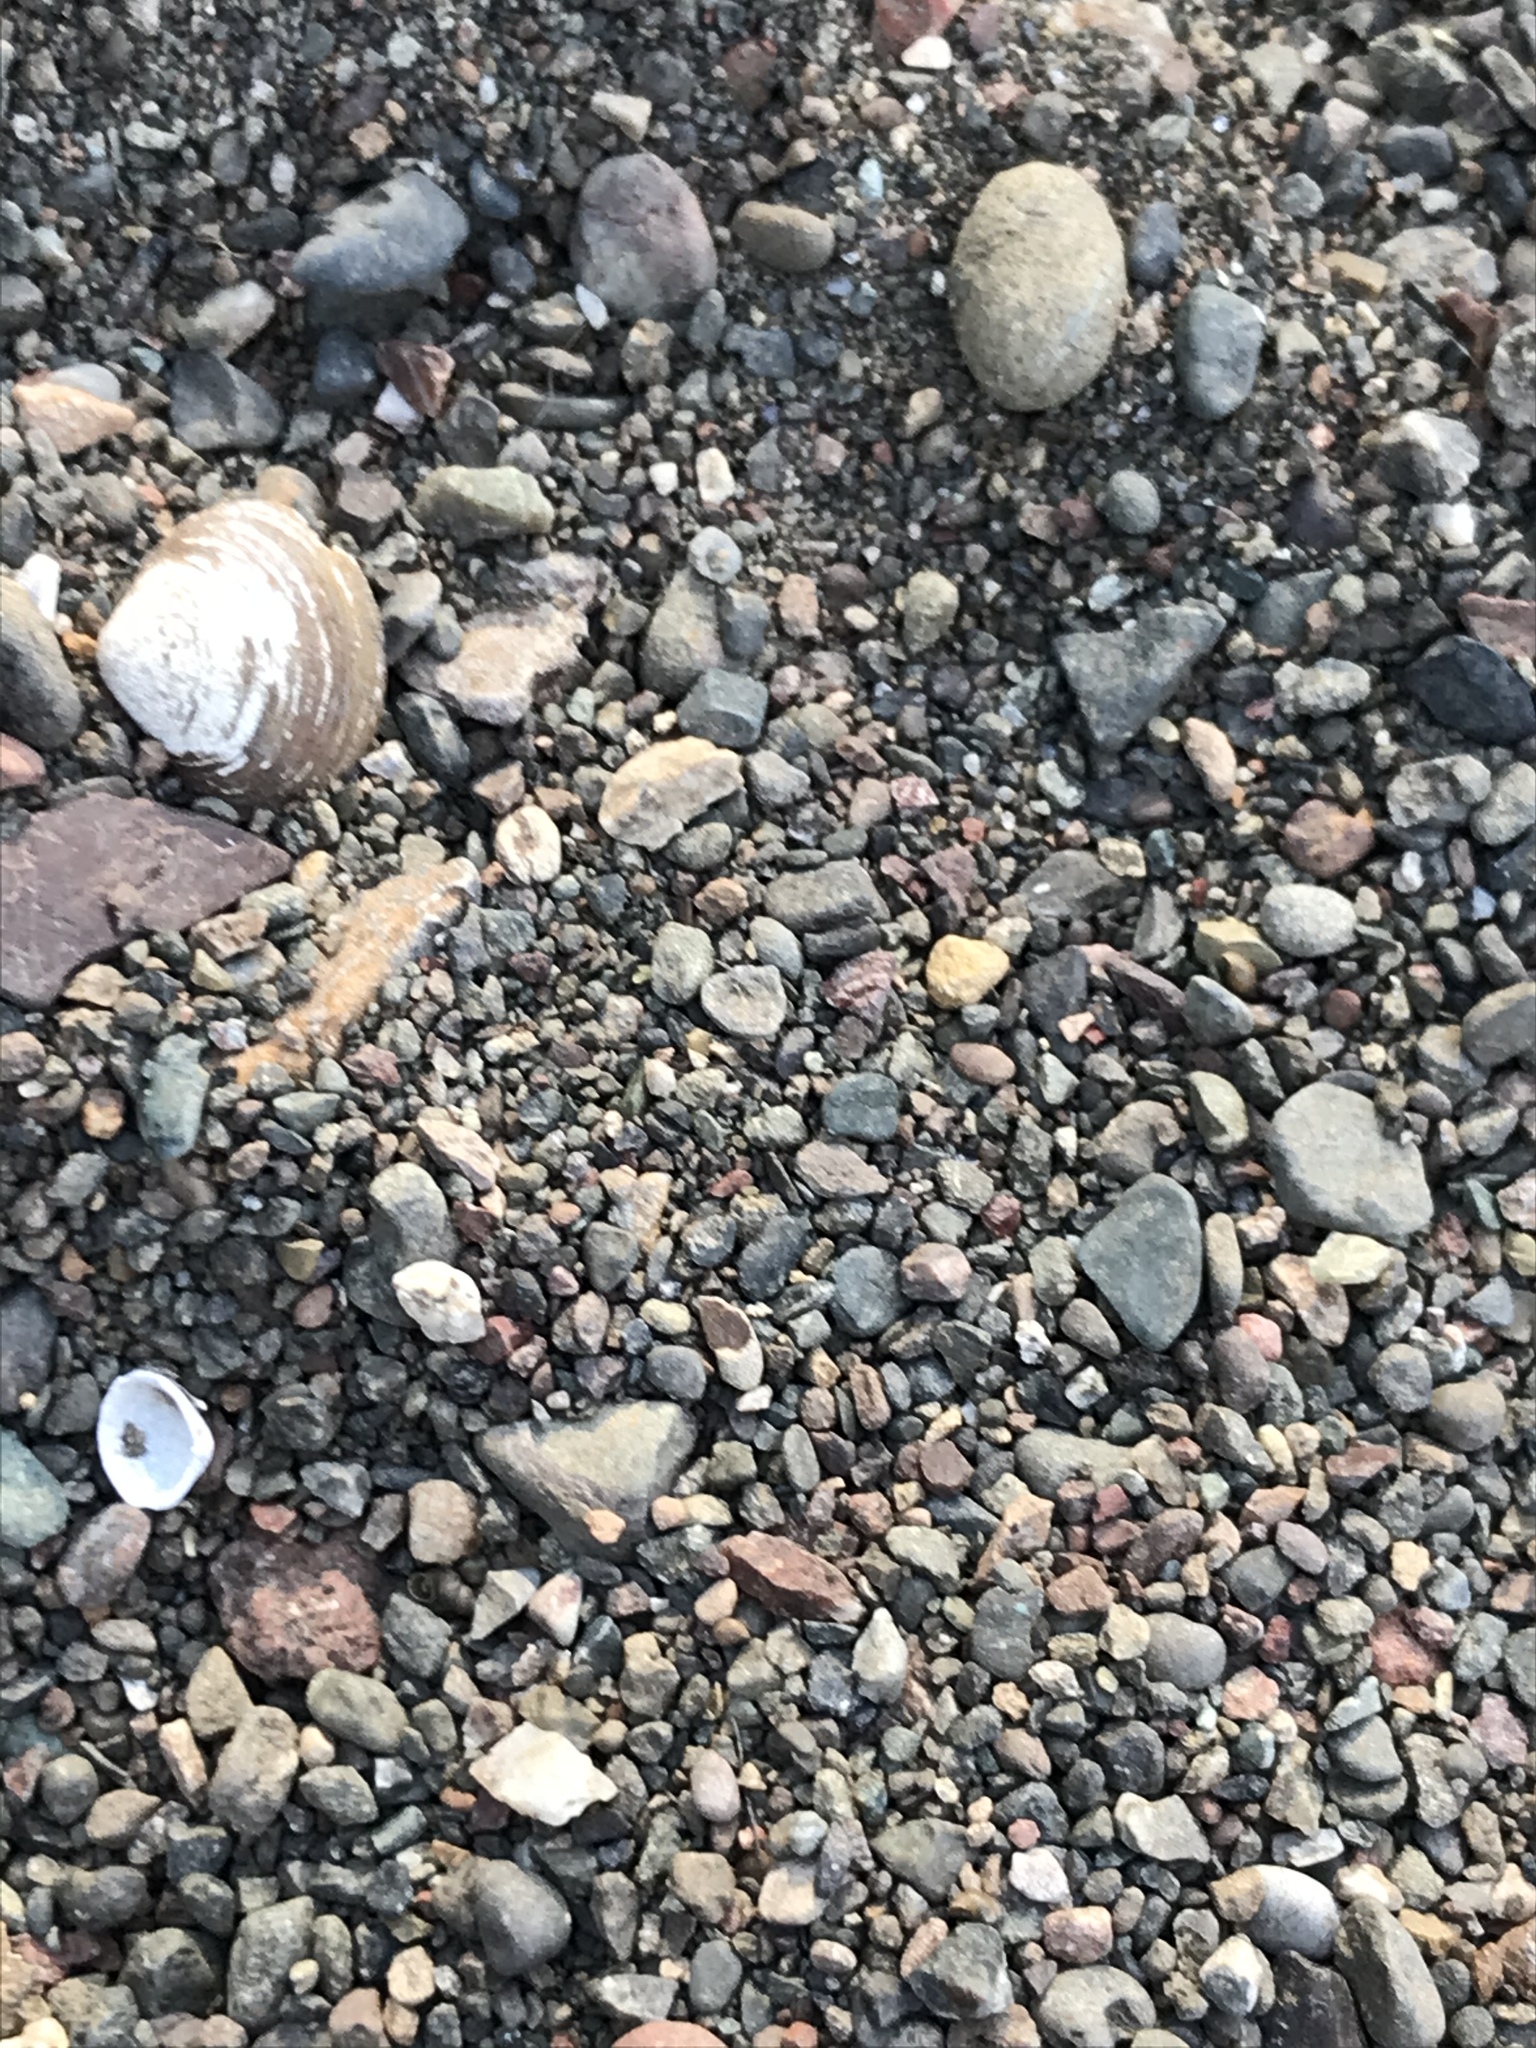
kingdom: Animalia
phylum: Mollusca
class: Bivalvia
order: Venerida
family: Cyrenidae
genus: Corbicula
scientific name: Corbicula fluminea
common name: Asian clam
